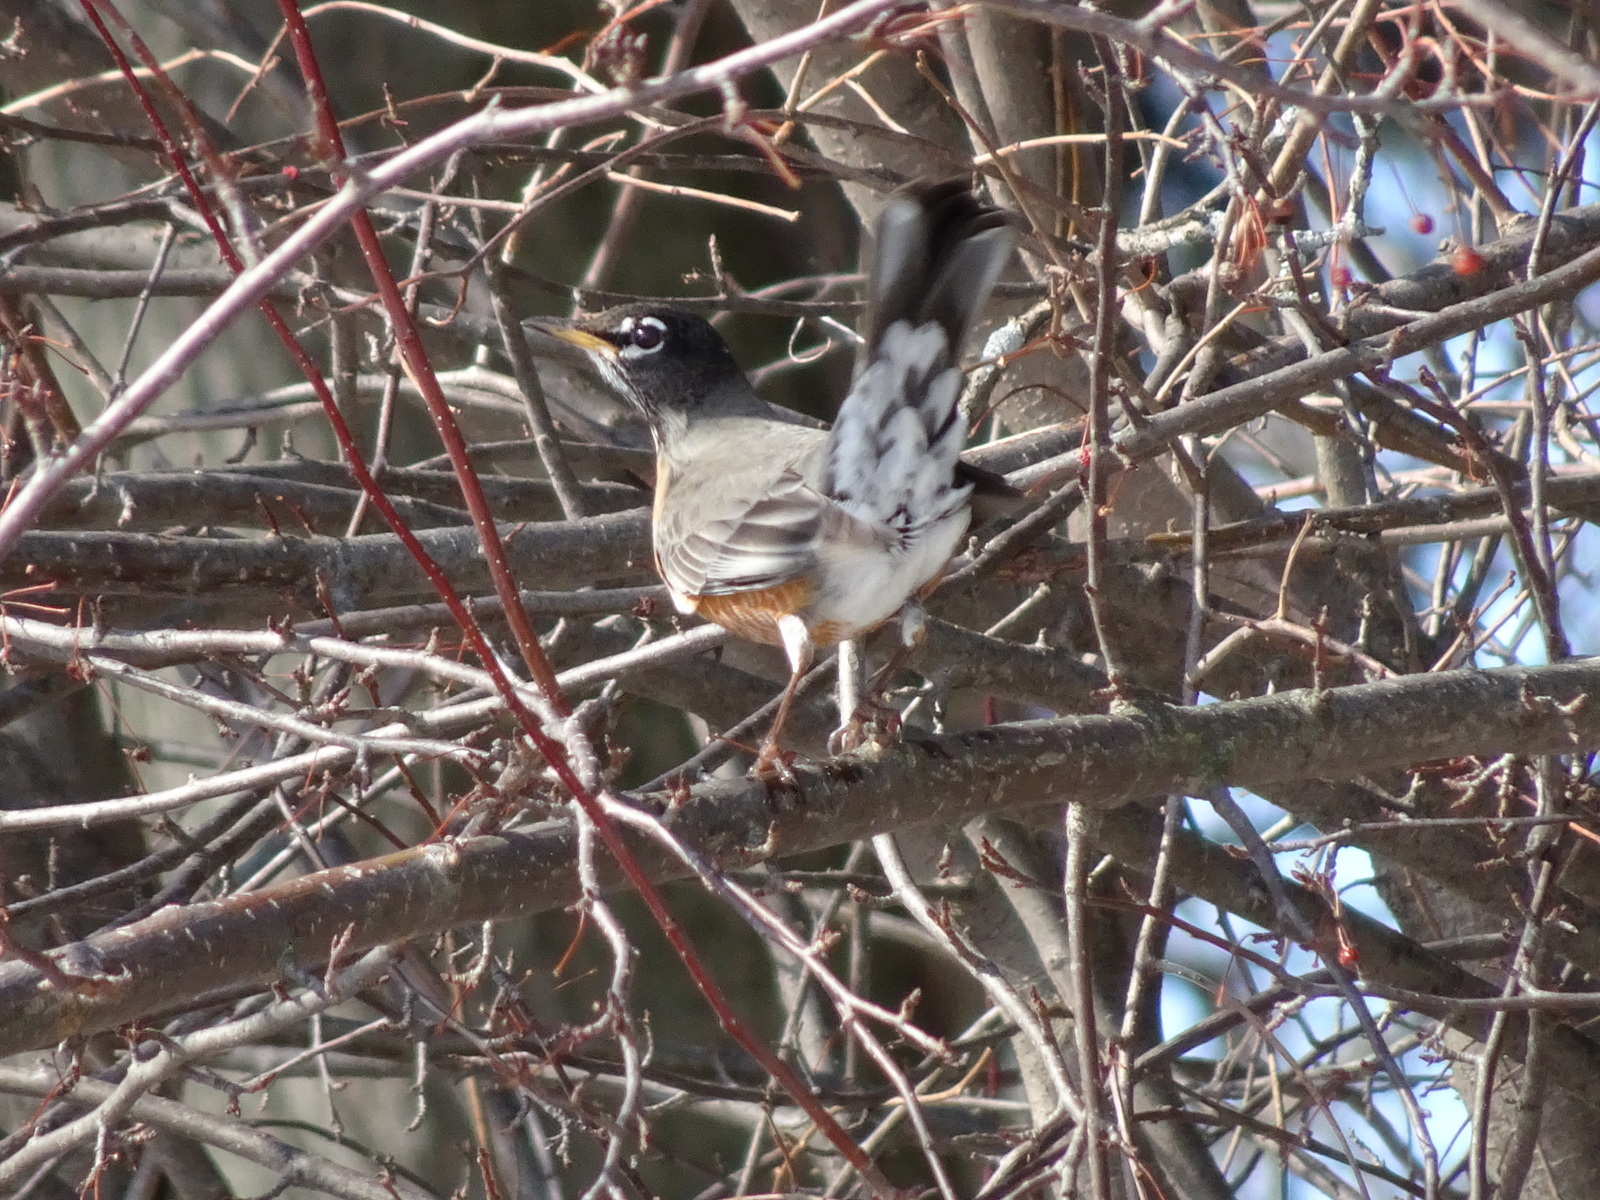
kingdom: Animalia
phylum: Chordata
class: Aves
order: Passeriformes
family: Turdidae
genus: Turdus
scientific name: Turdus migratorius
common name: American robin
